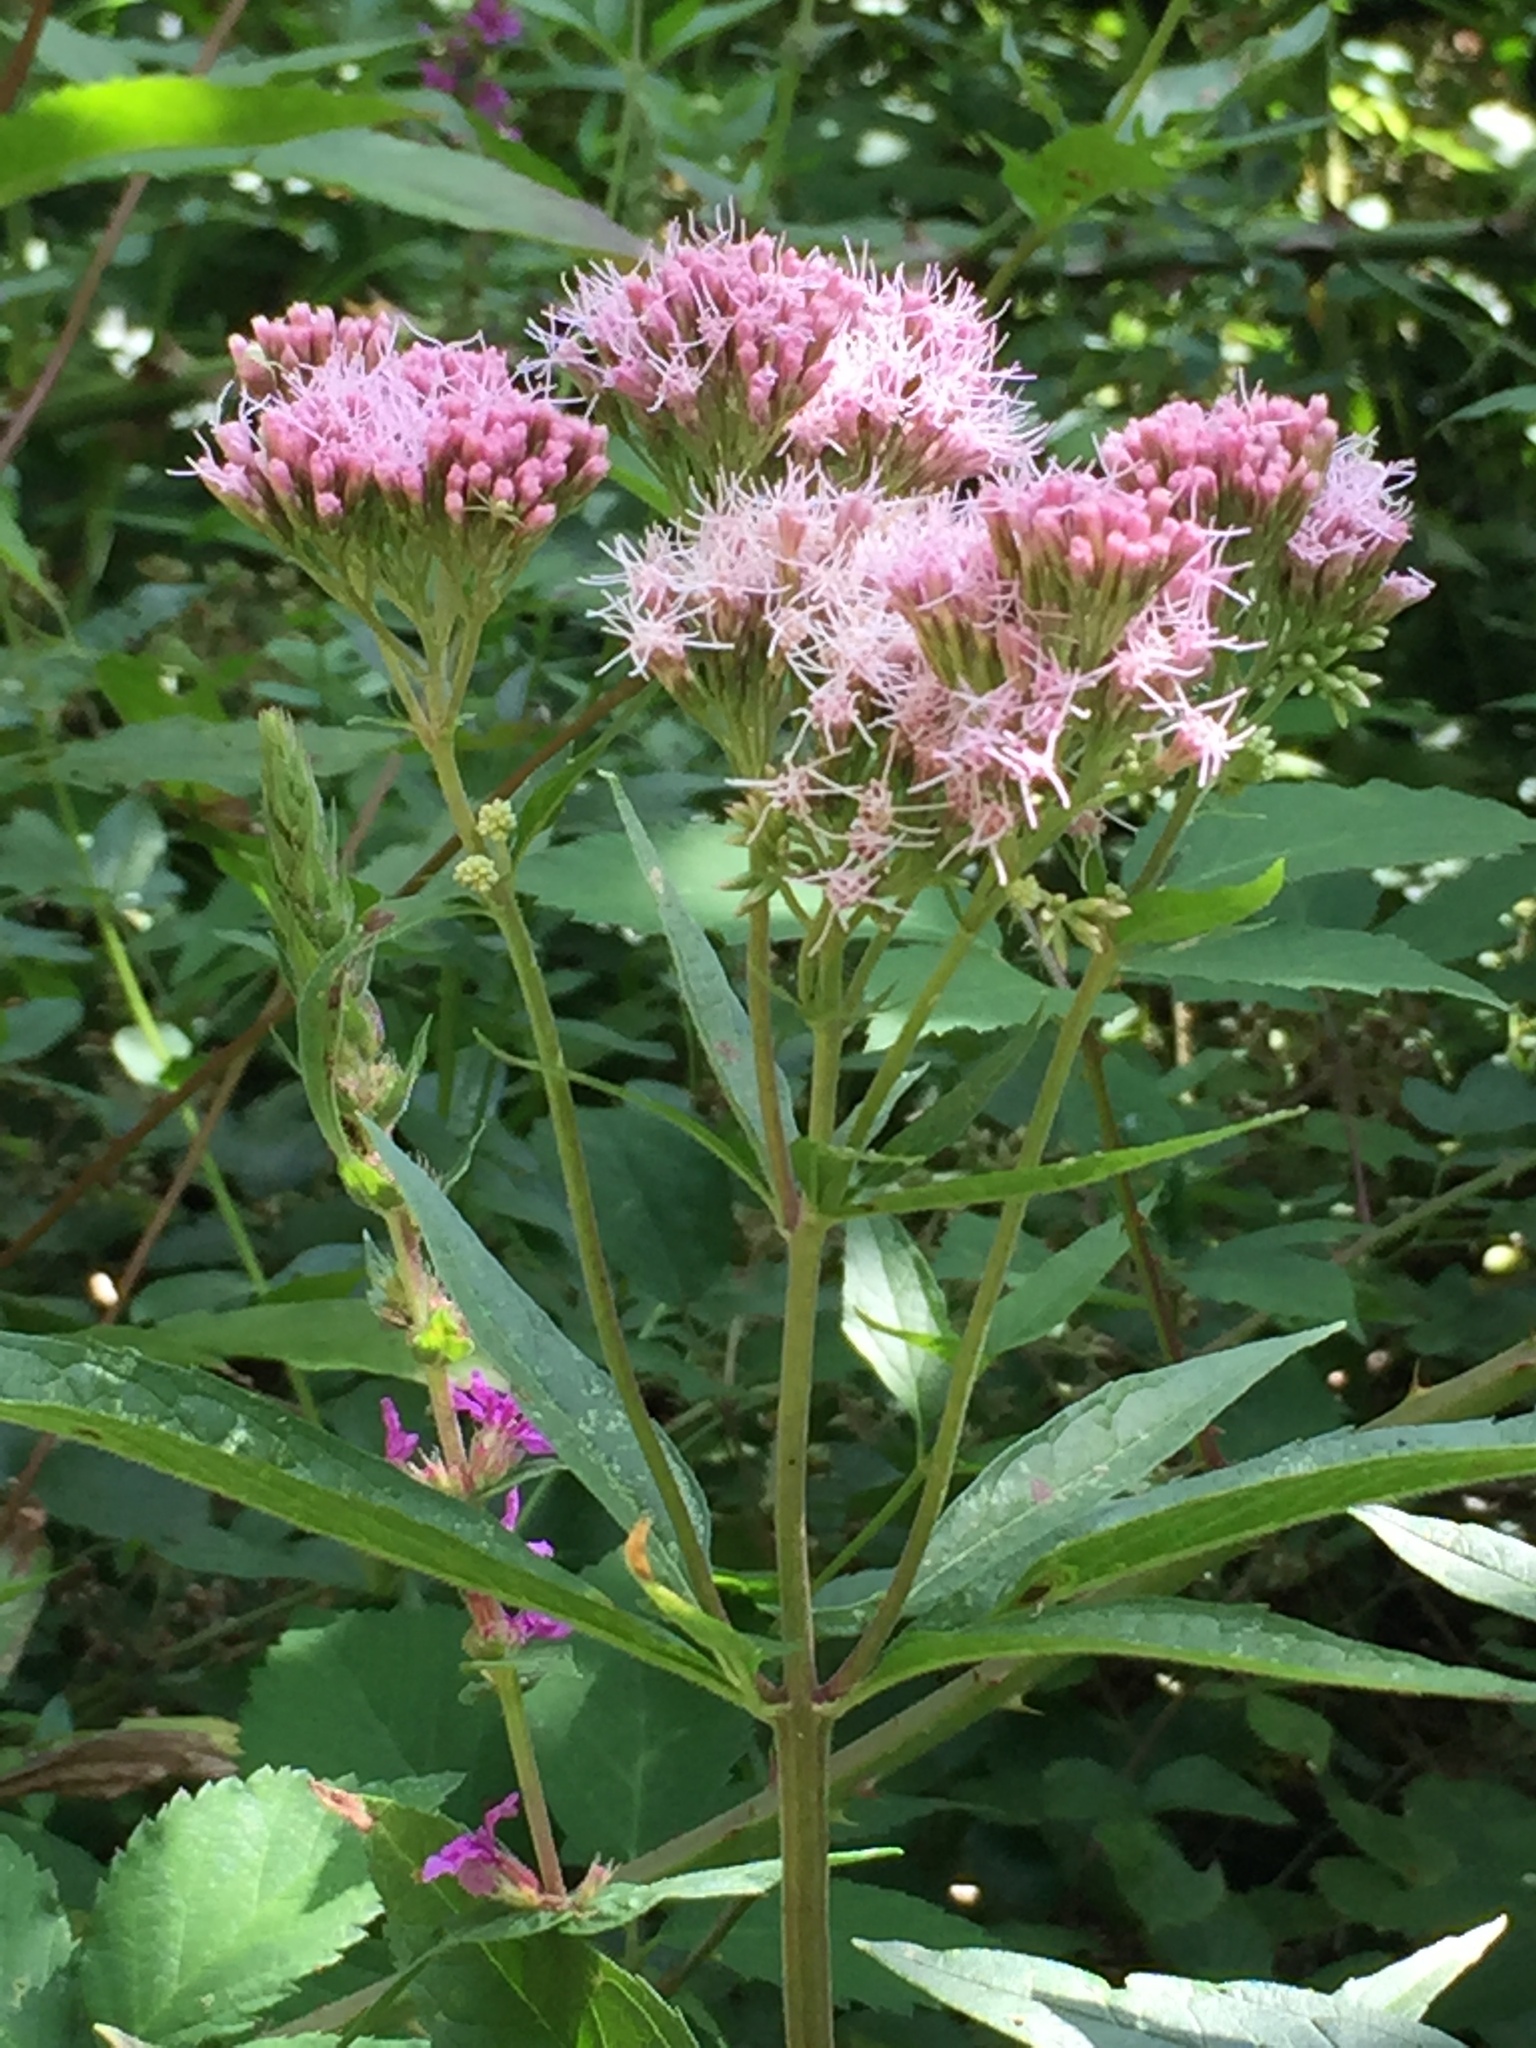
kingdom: Plantae
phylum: Tracheophyta
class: Magnoliopsida
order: Asterales
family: Asteraceae
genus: Eupatorium
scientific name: Eupatorium cannabinum
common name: Hemp-agrimony
